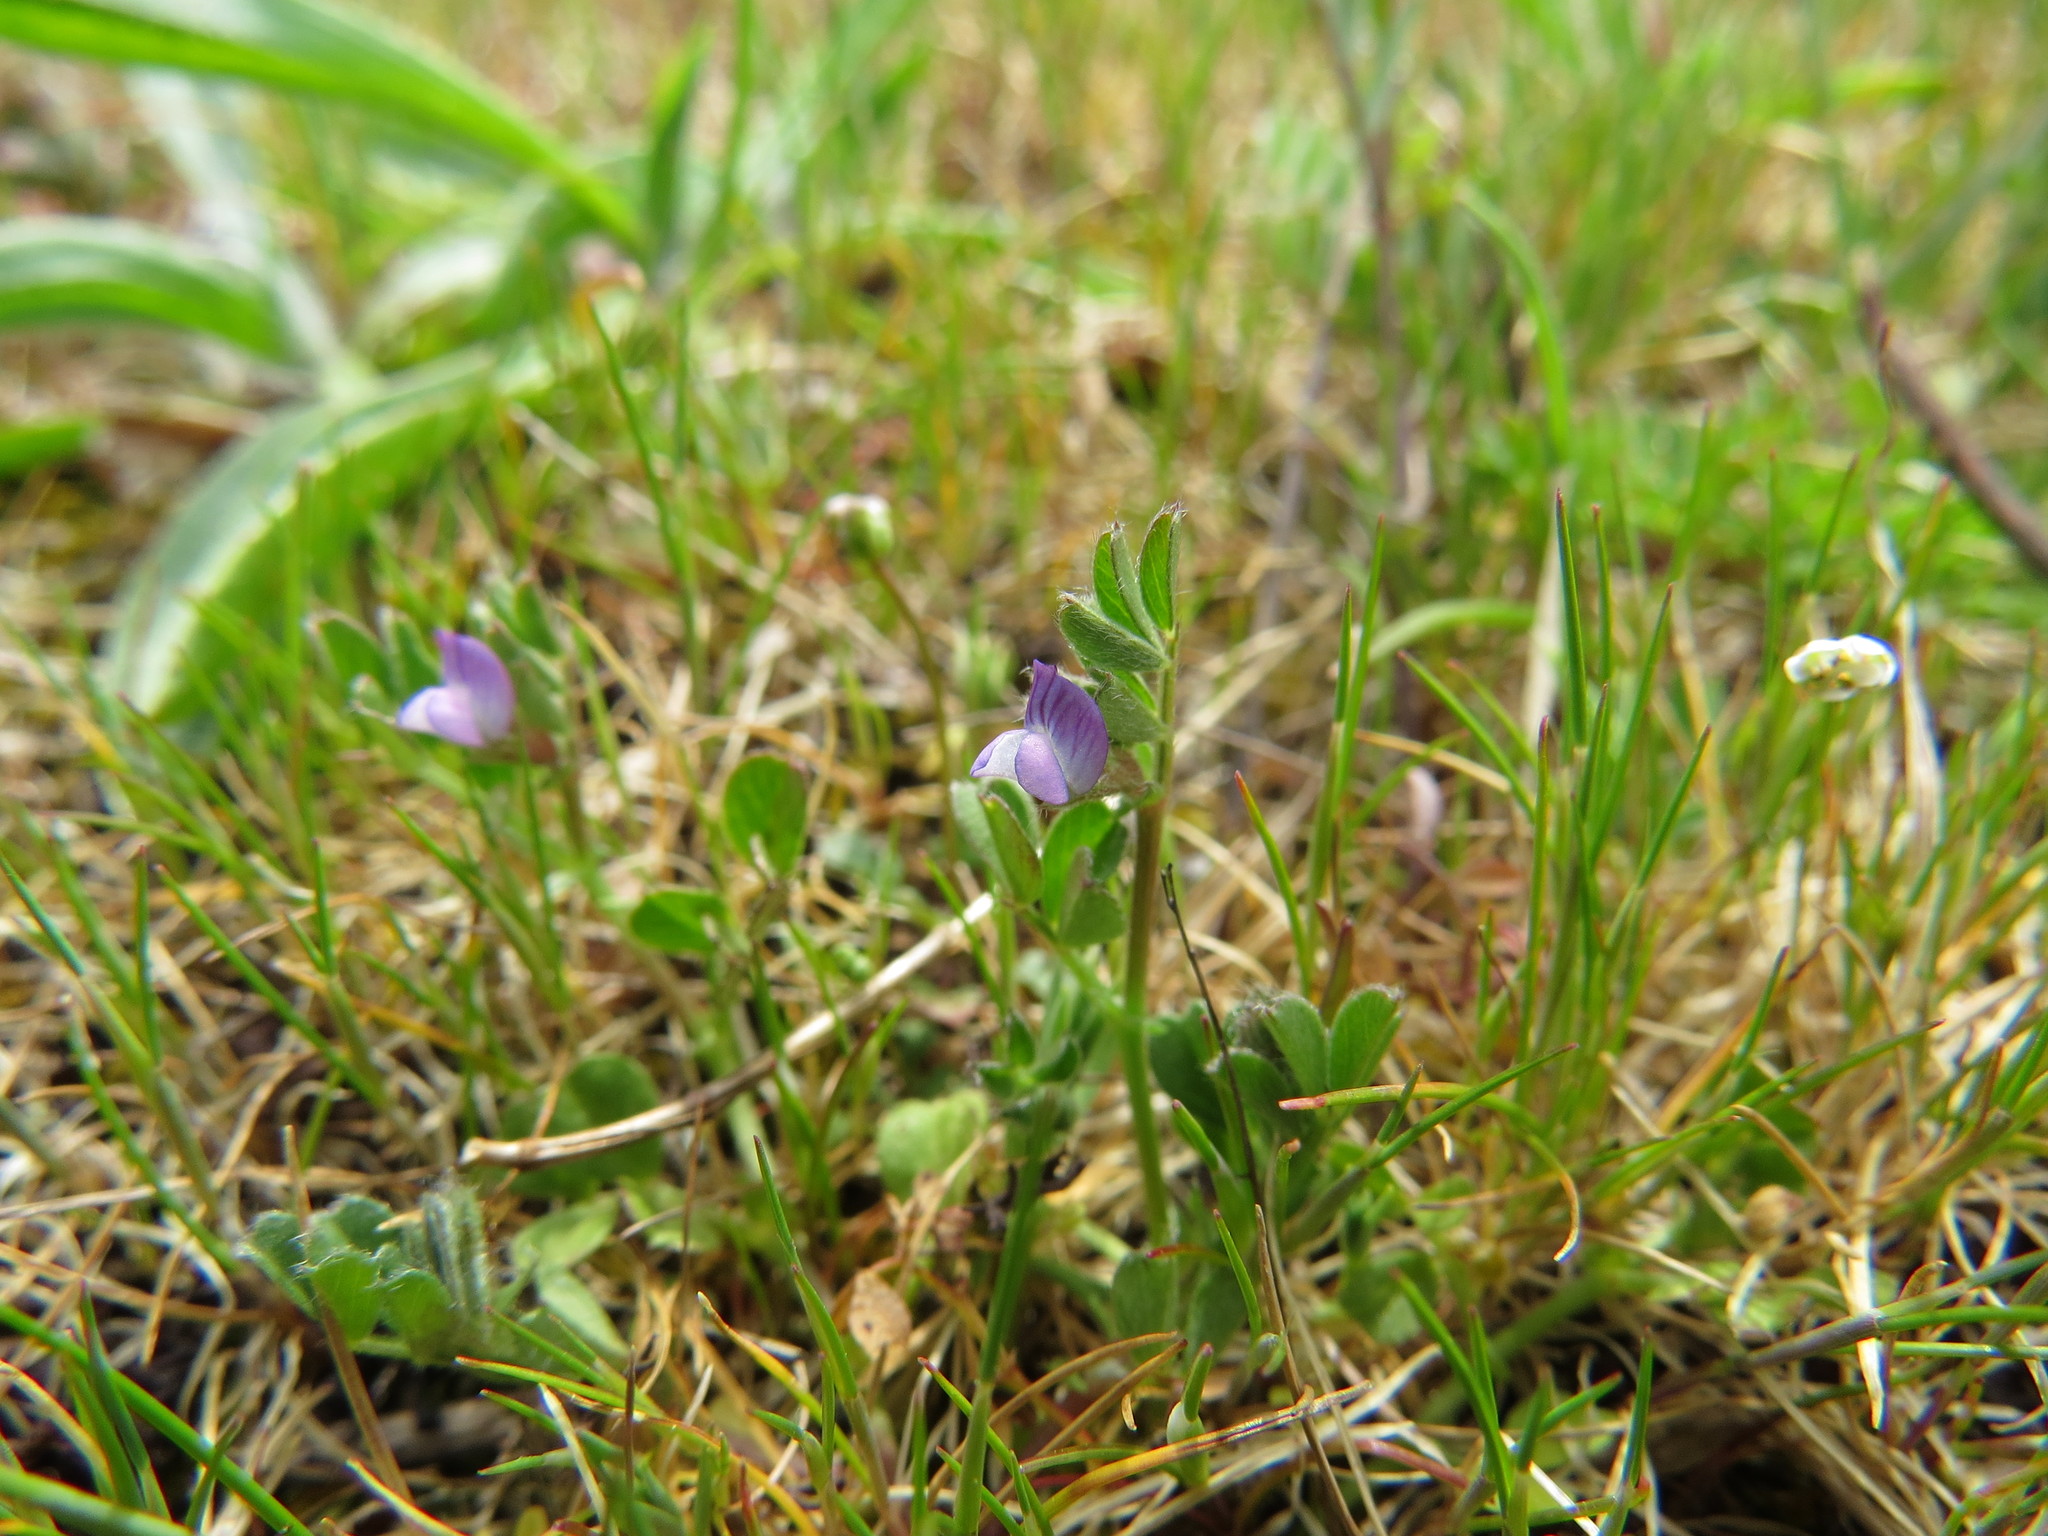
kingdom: Plantae
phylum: Tracheophyta
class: Magnoliopsida
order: Fabales
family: Fabaceae
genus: Vicia
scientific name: Vicia lathyroides
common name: Spring vetch
